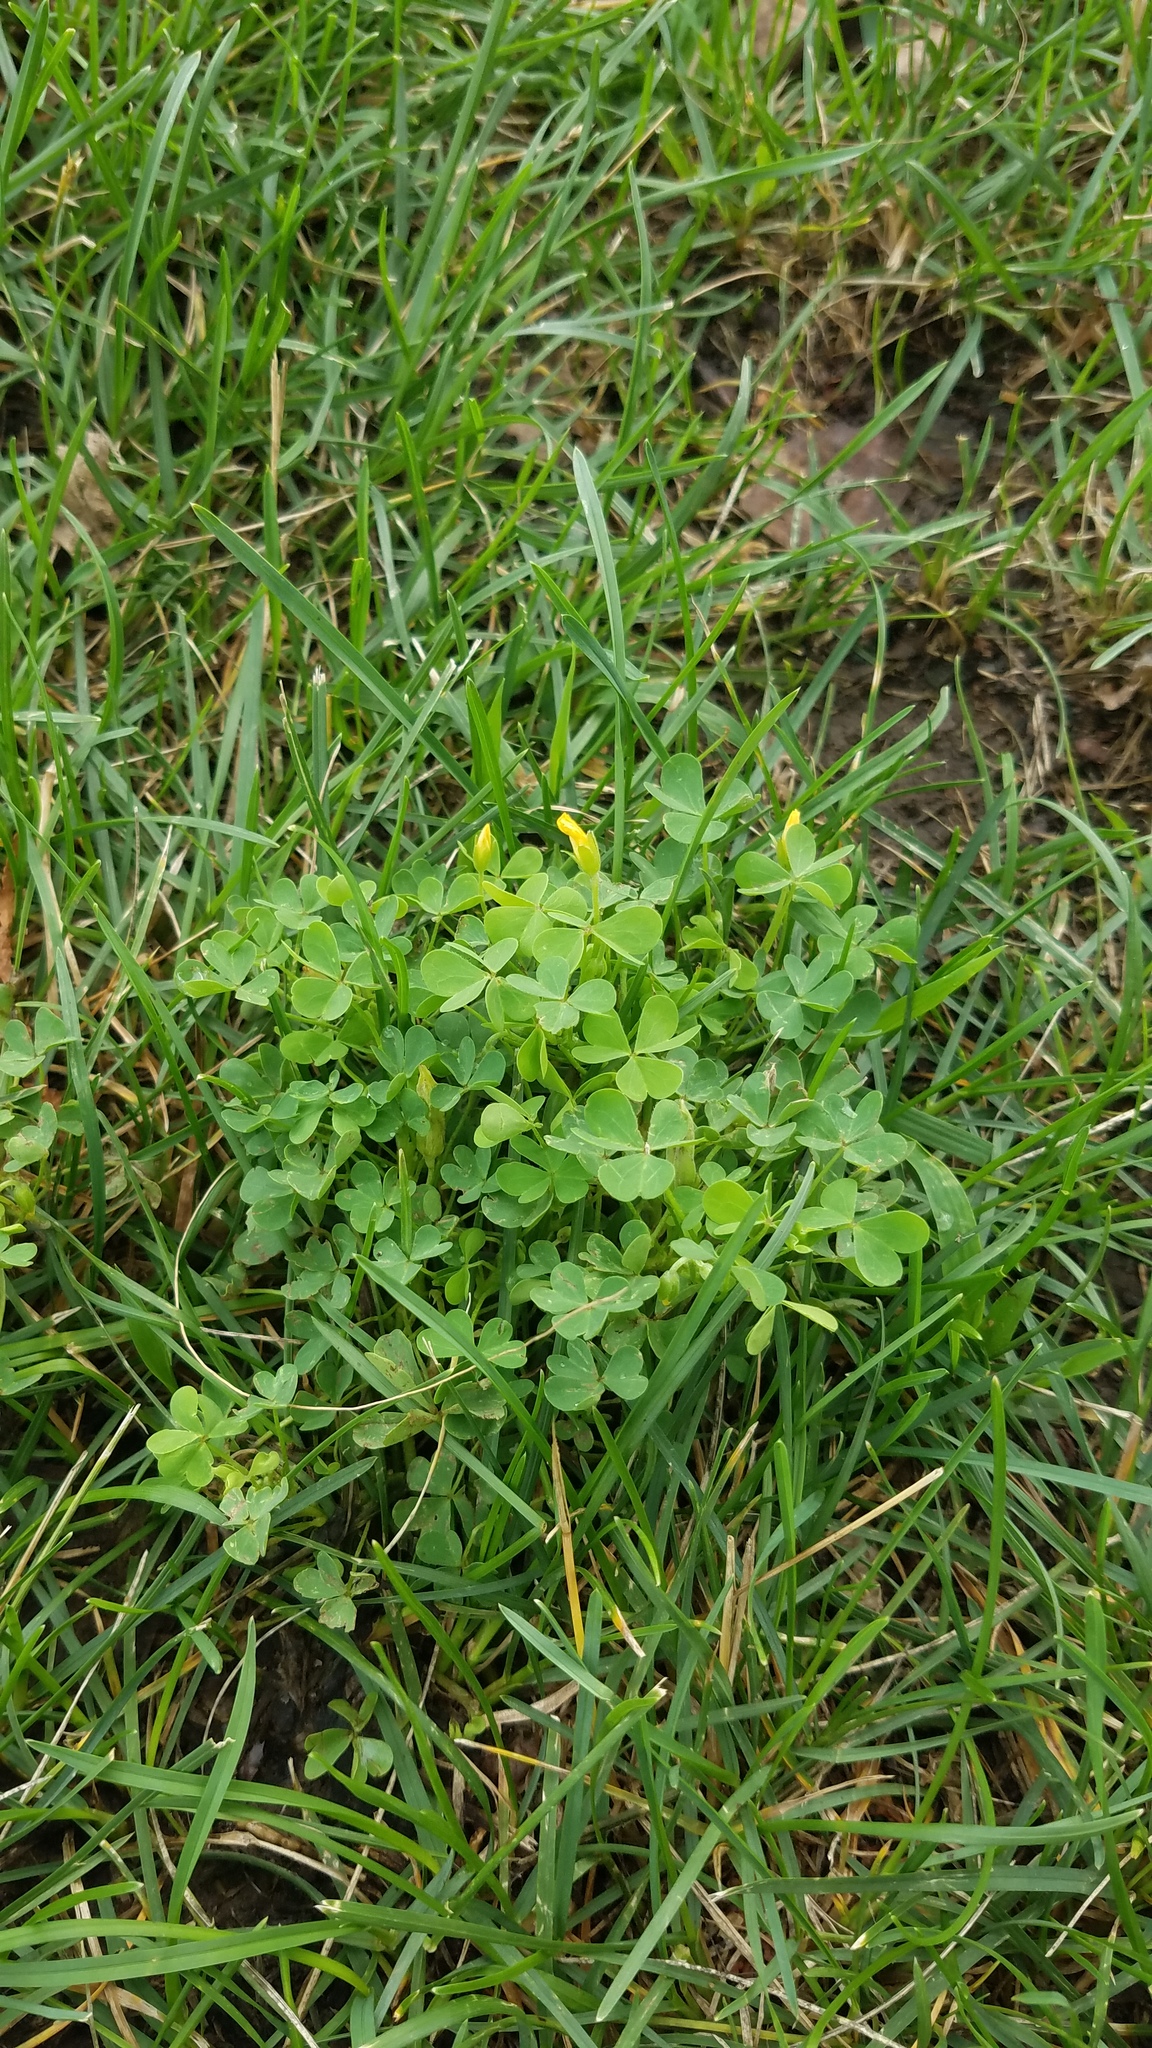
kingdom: Plantae
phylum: Tracheophyta
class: Magnoliopsida
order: Oxalidales
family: Oxalidaceae
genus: Oxalis
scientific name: Oxalis dillenii
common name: Sussex yellow-sorrel
